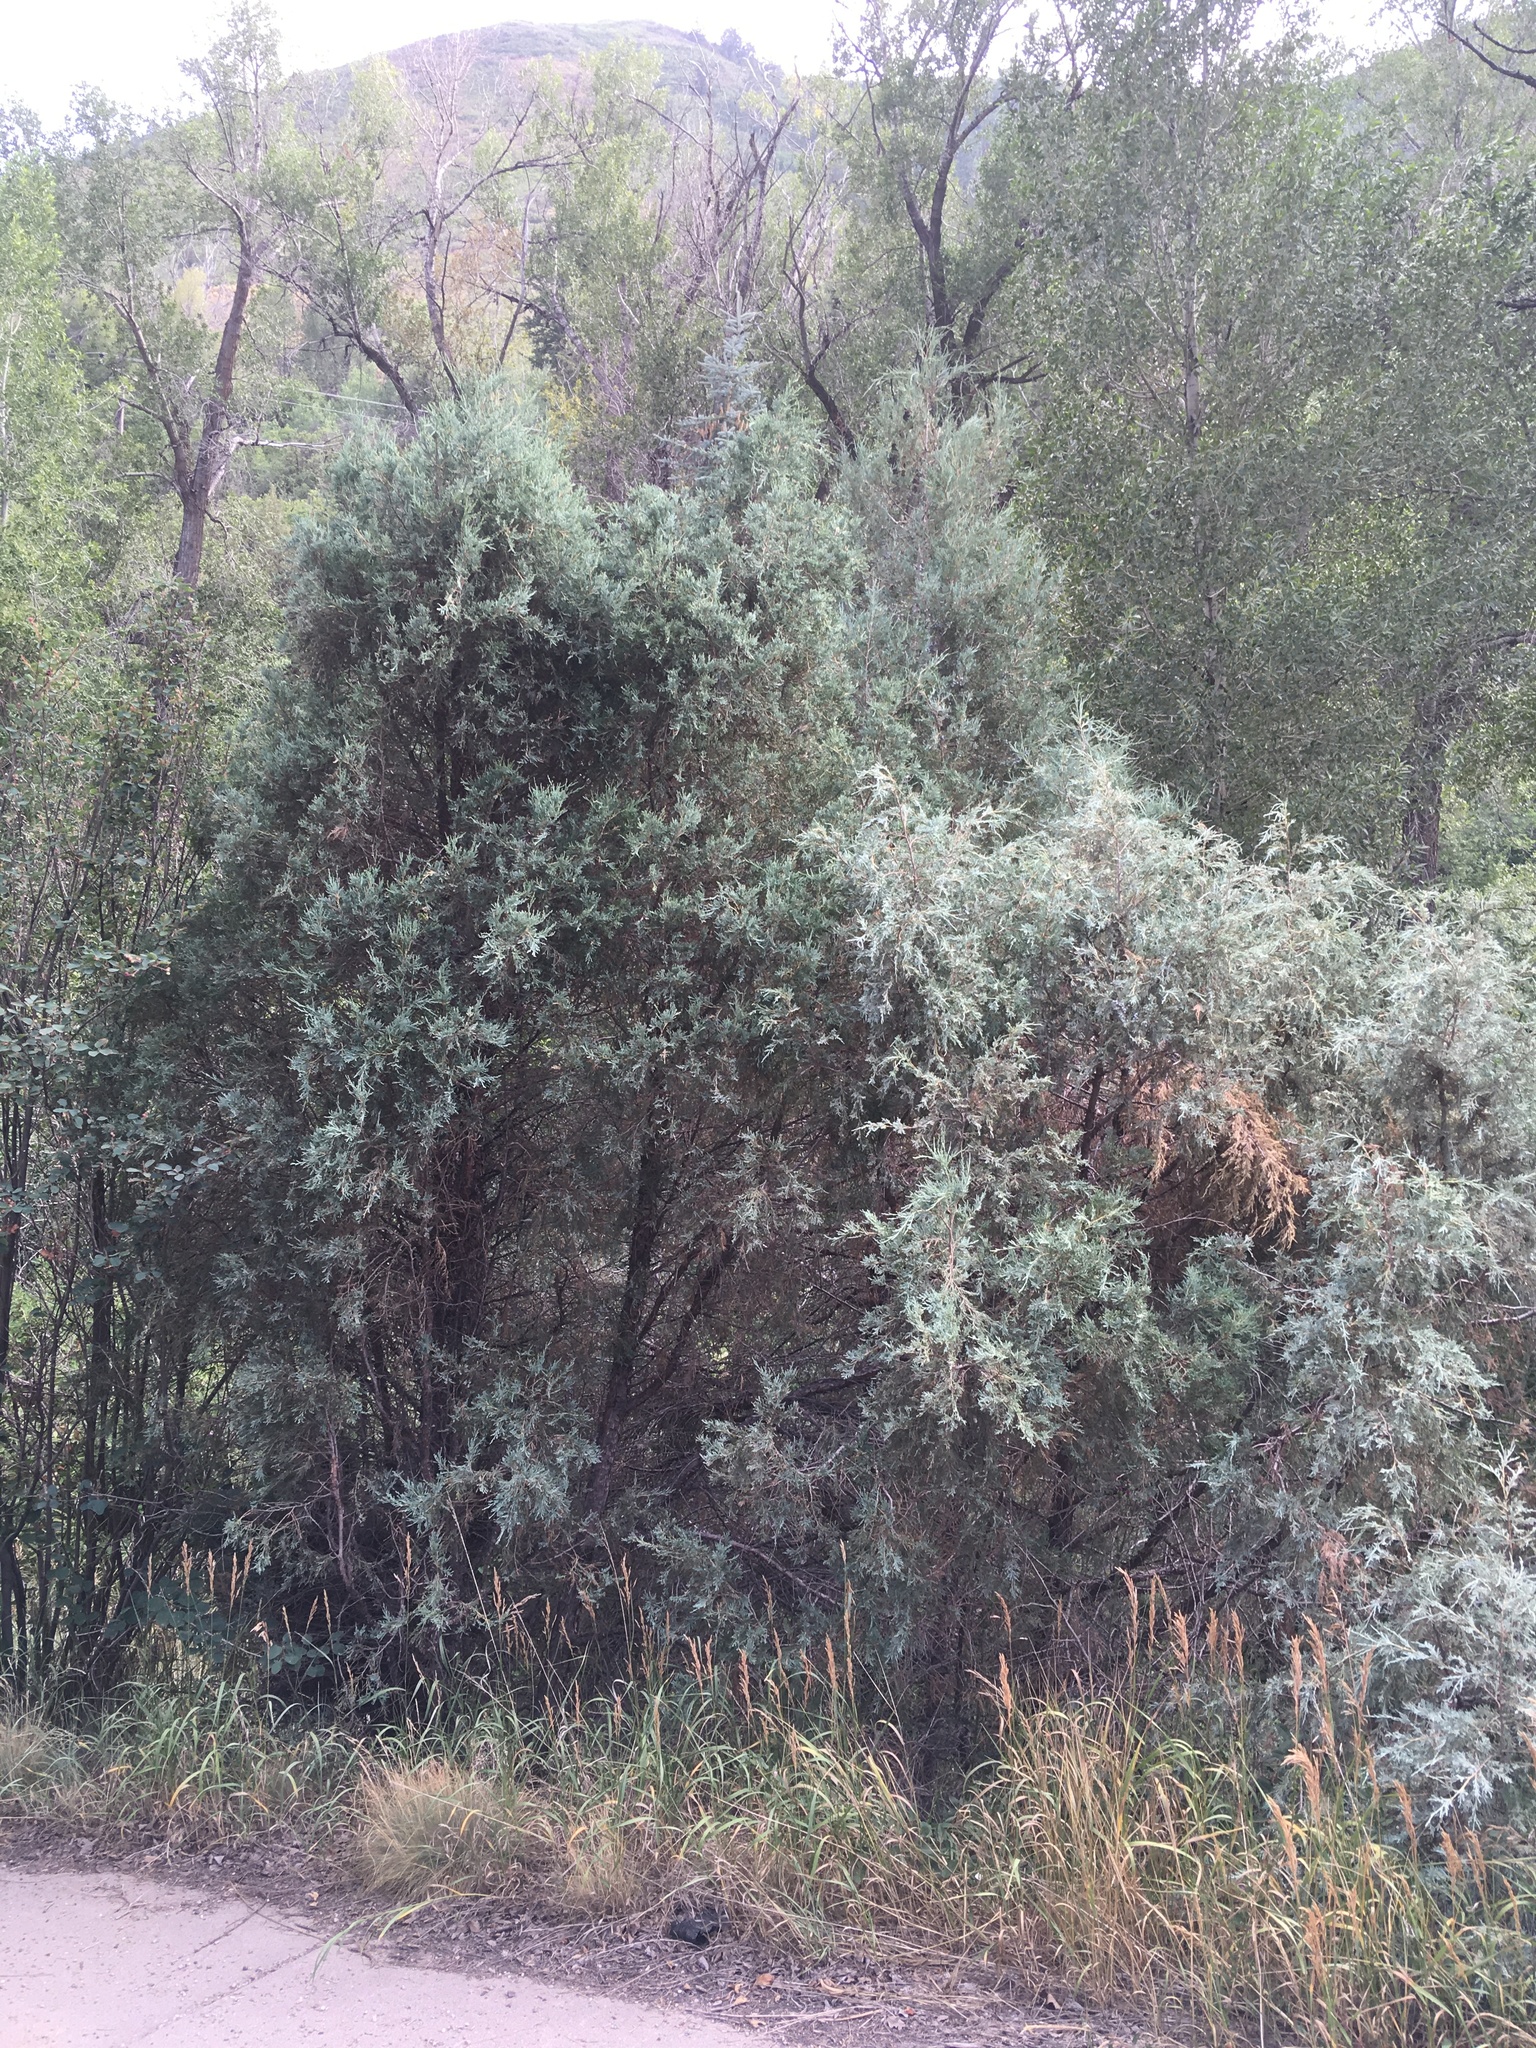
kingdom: Plantae
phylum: Tracheophyta
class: Pinopsida
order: Pinales
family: Cupressaceae
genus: Juniperus
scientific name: Juniperus scopulorum
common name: Rocky mountain juniper
